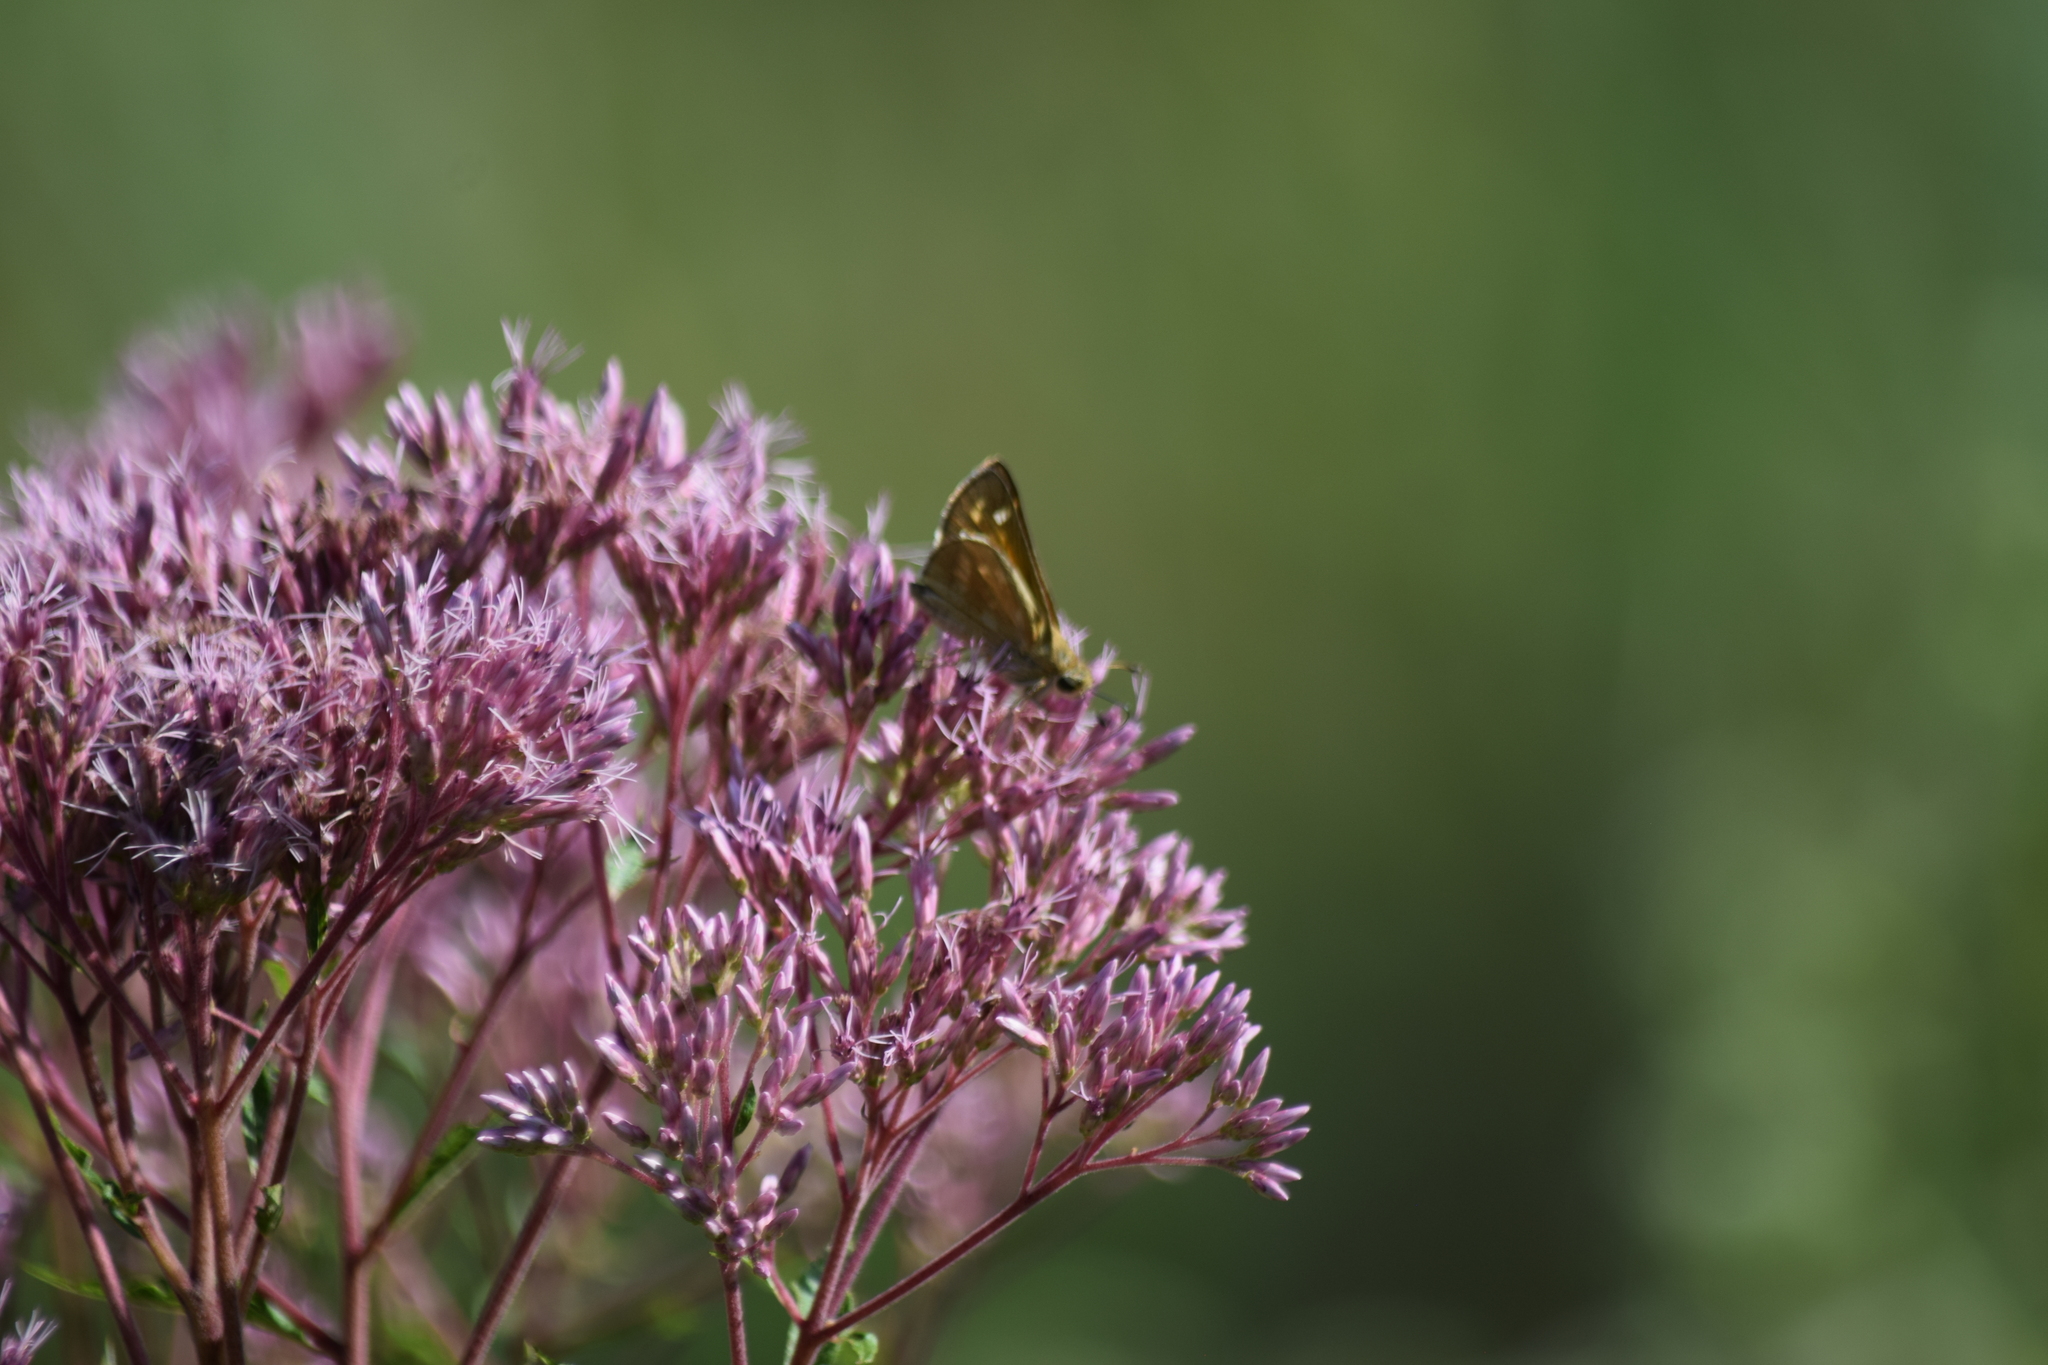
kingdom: Animalia
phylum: Arthropoda
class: Insecta
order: Lepidoptera
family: Hesperiidae
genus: Atalopedes
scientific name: Atalopedes
